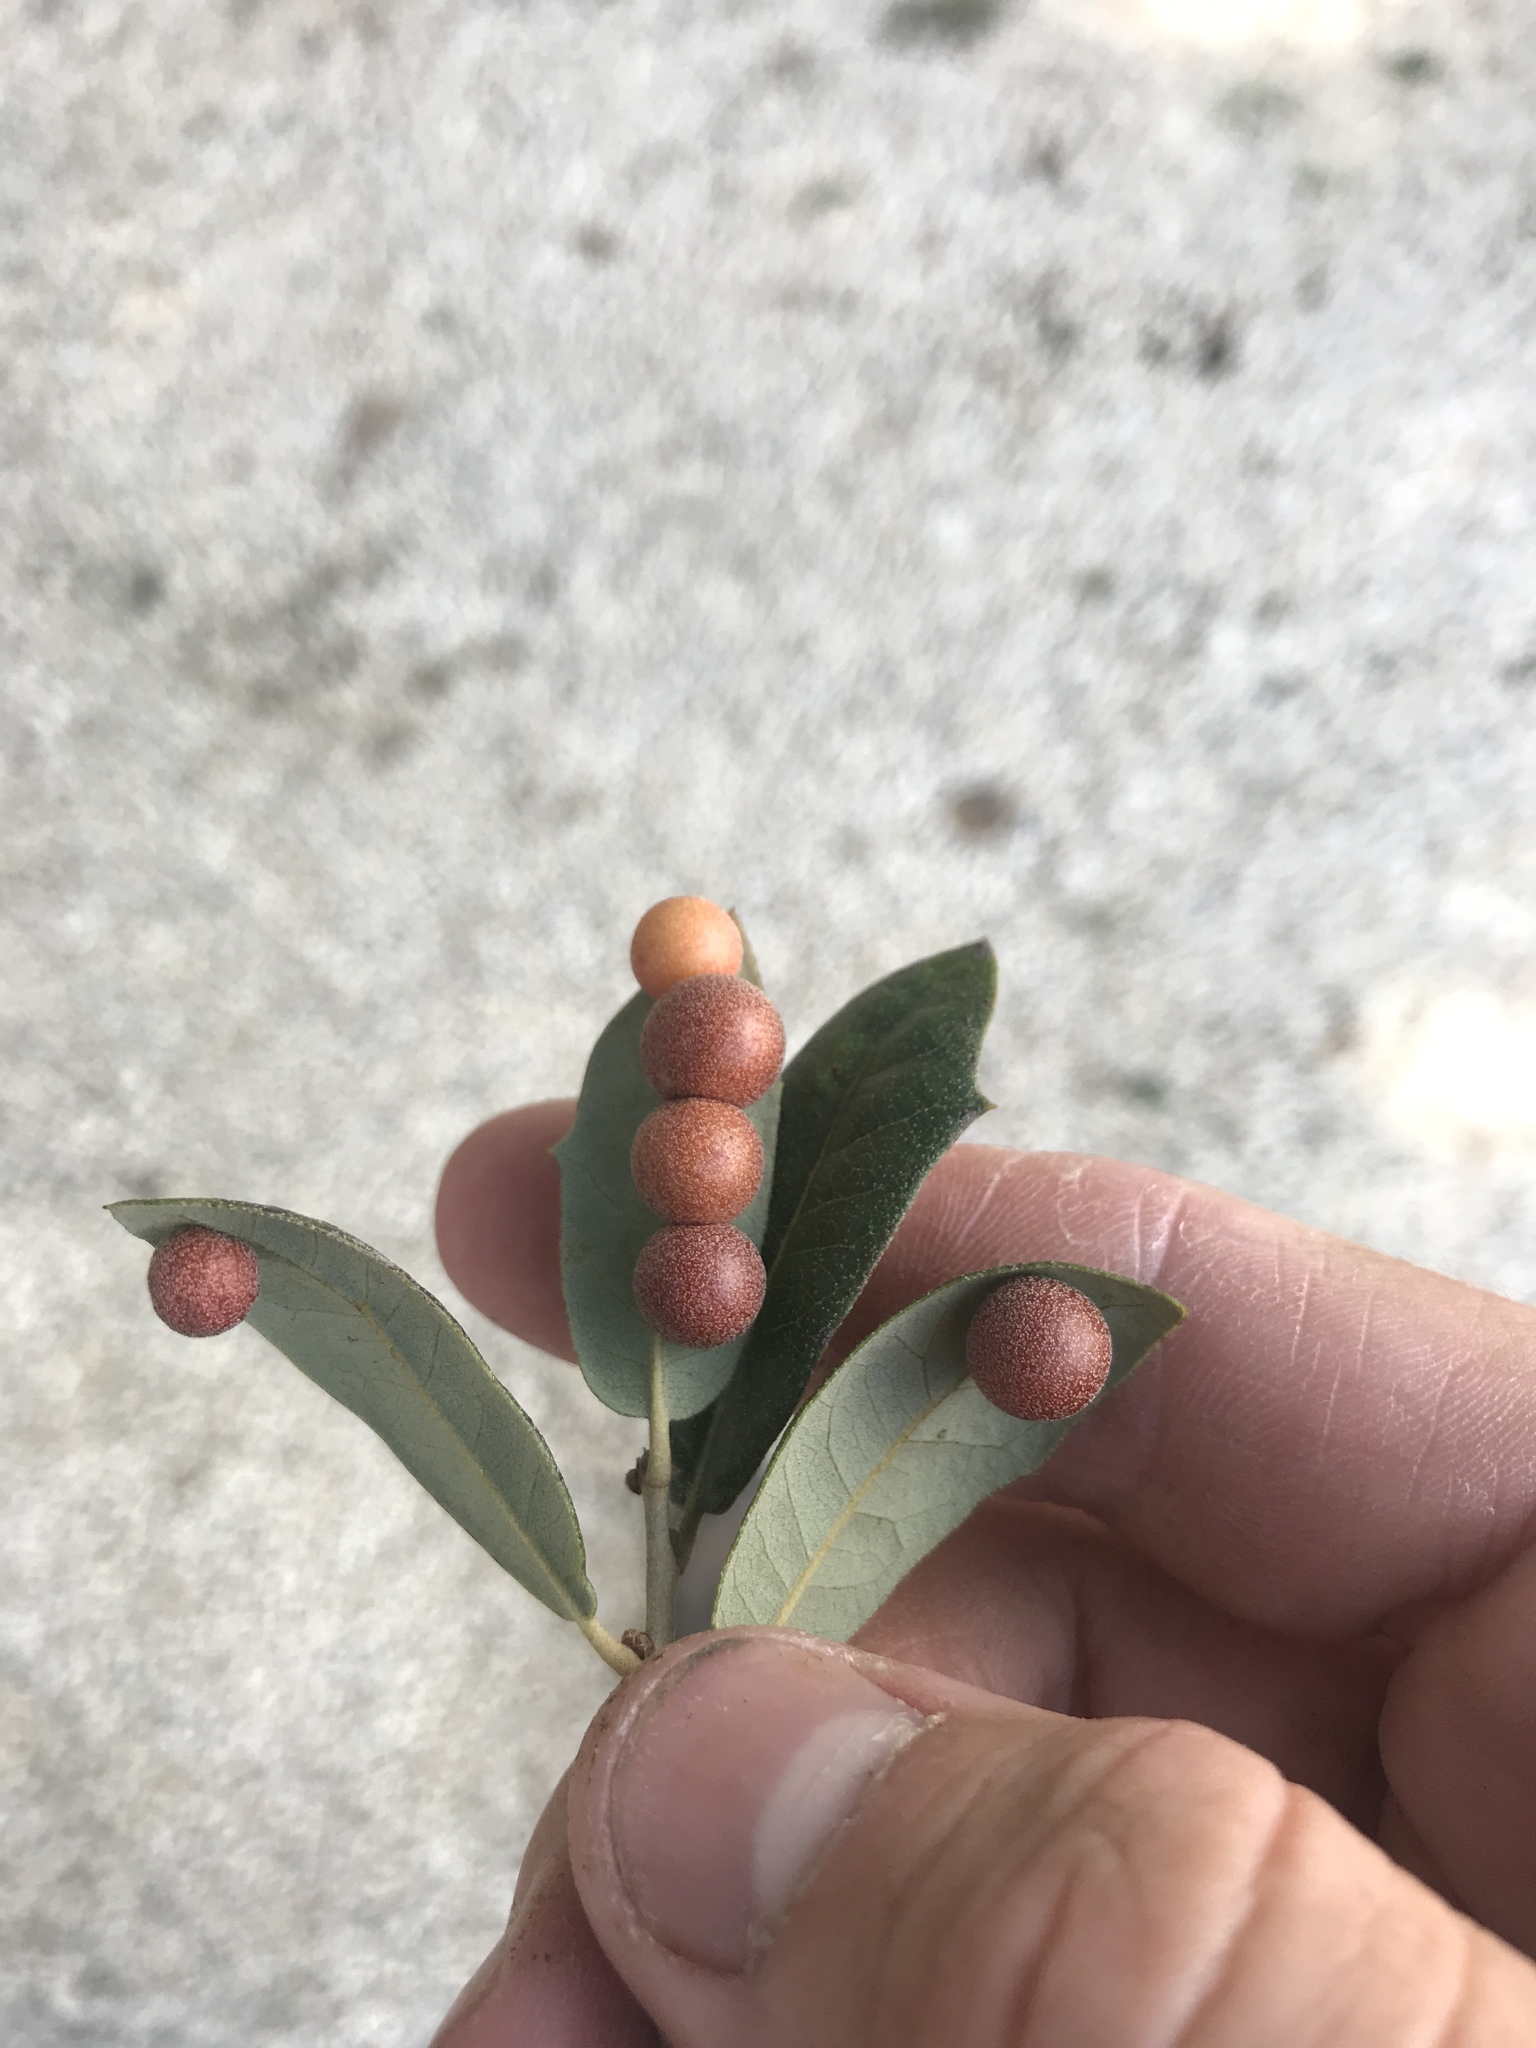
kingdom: Animalia
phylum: Arthropoda
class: Insecta
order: Hymenoptera
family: Cynipidae
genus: Belonocnema
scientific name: Belonocnema kinseyi
